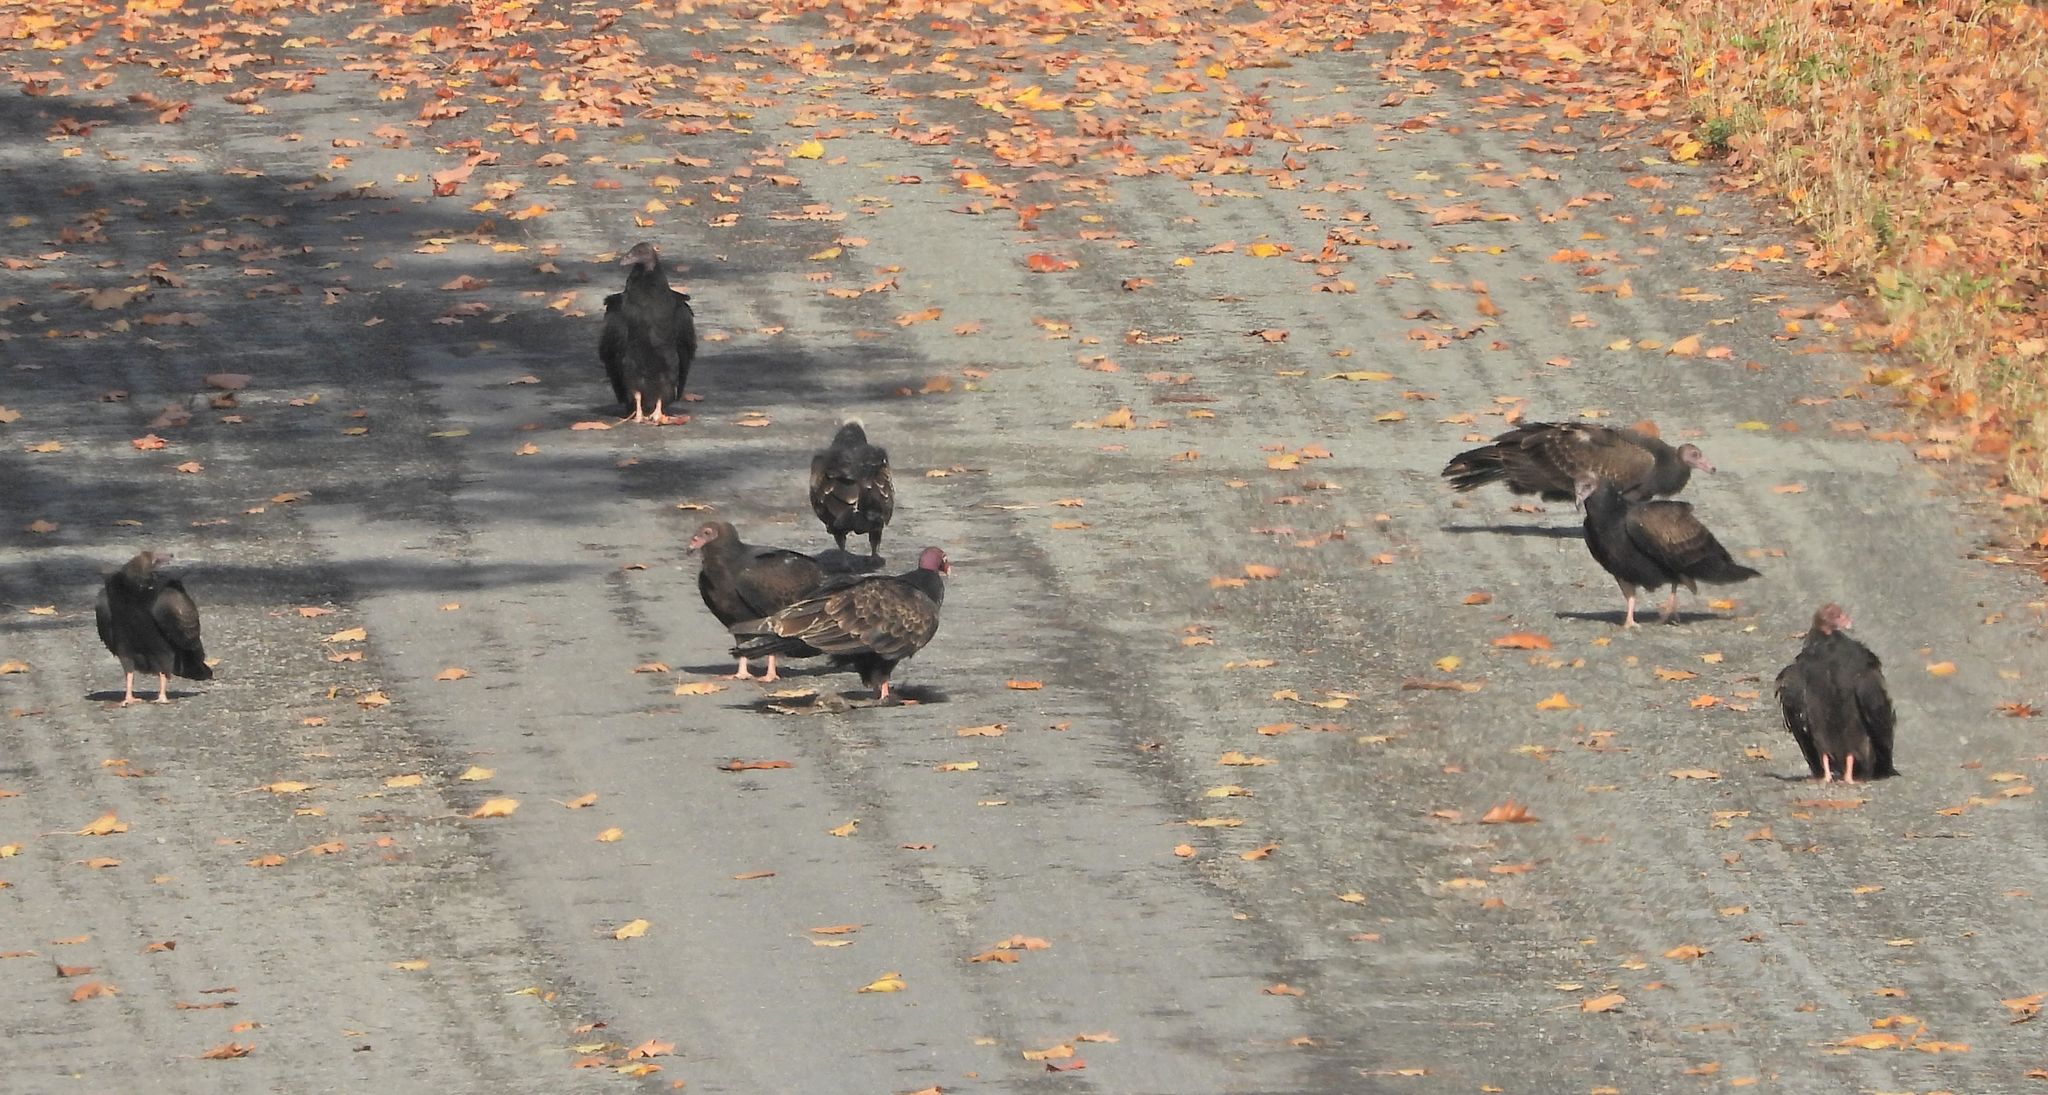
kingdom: Animalia
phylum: Chordata
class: Aves
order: Accipitriformes
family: Cathartidae
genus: Cathartes
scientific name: Cathartes aura
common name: Turkey vulture
